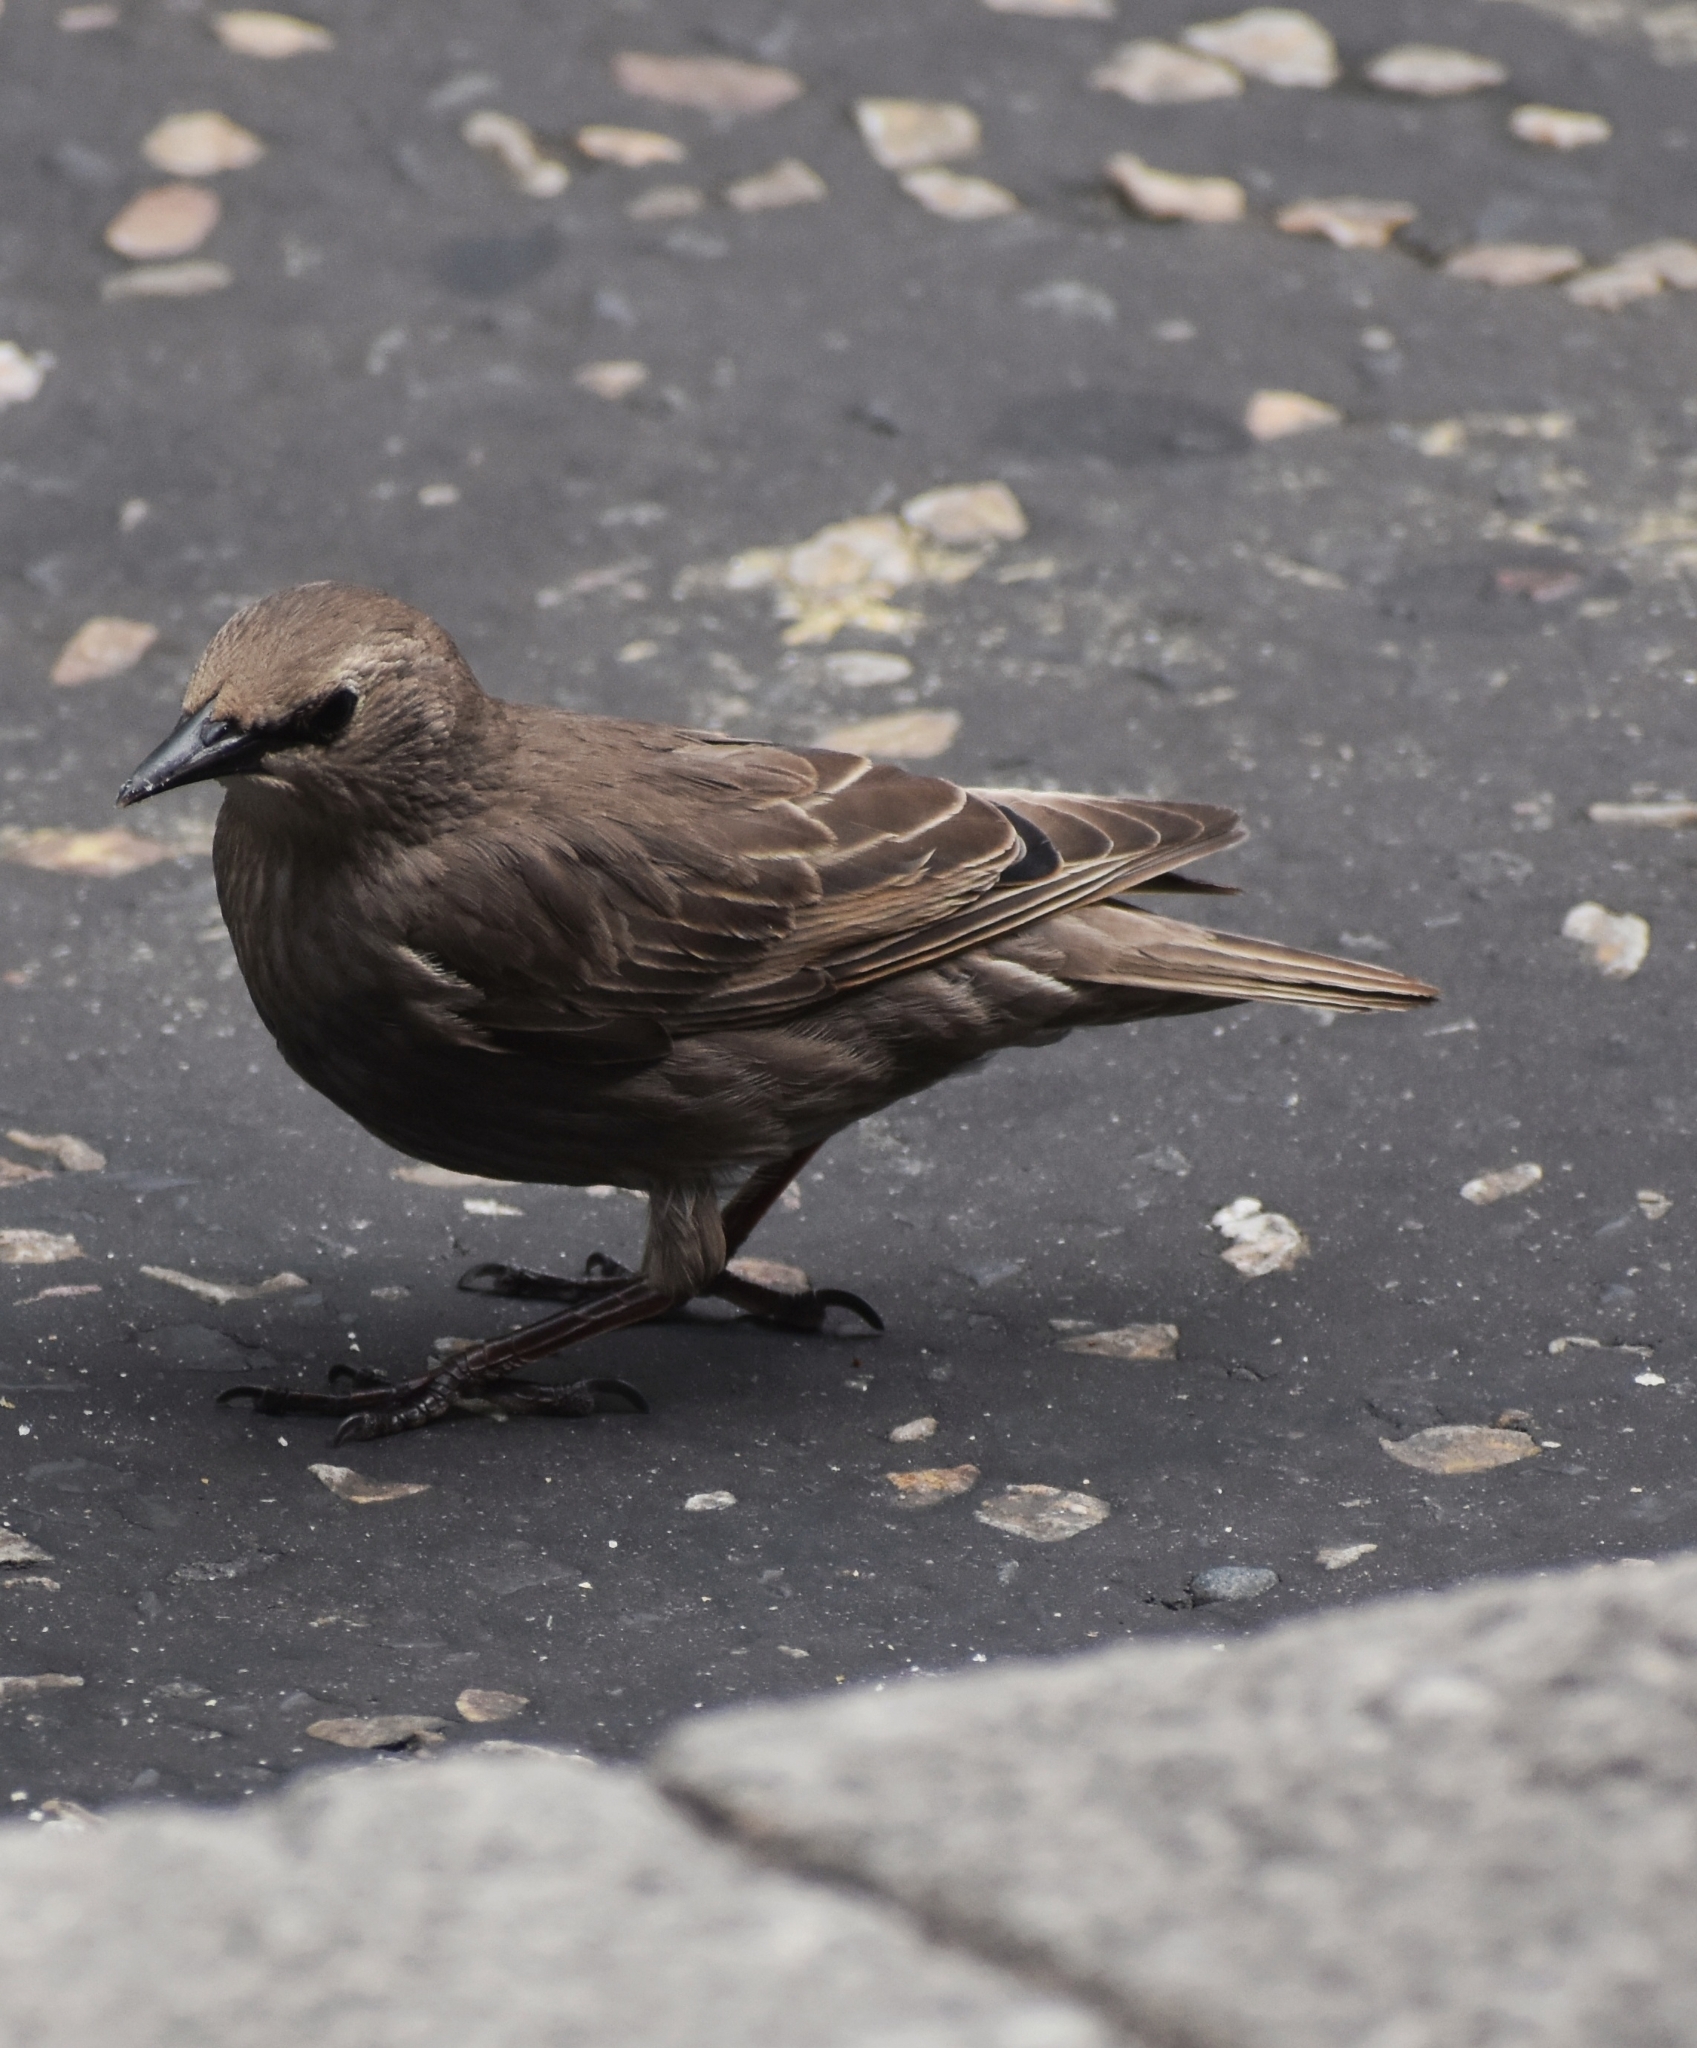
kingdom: Animalia
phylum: Chordata
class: Aves
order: Passeriformes
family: Sturnidae
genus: Sturnus
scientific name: Sturnus vulgaris
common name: Common starling
